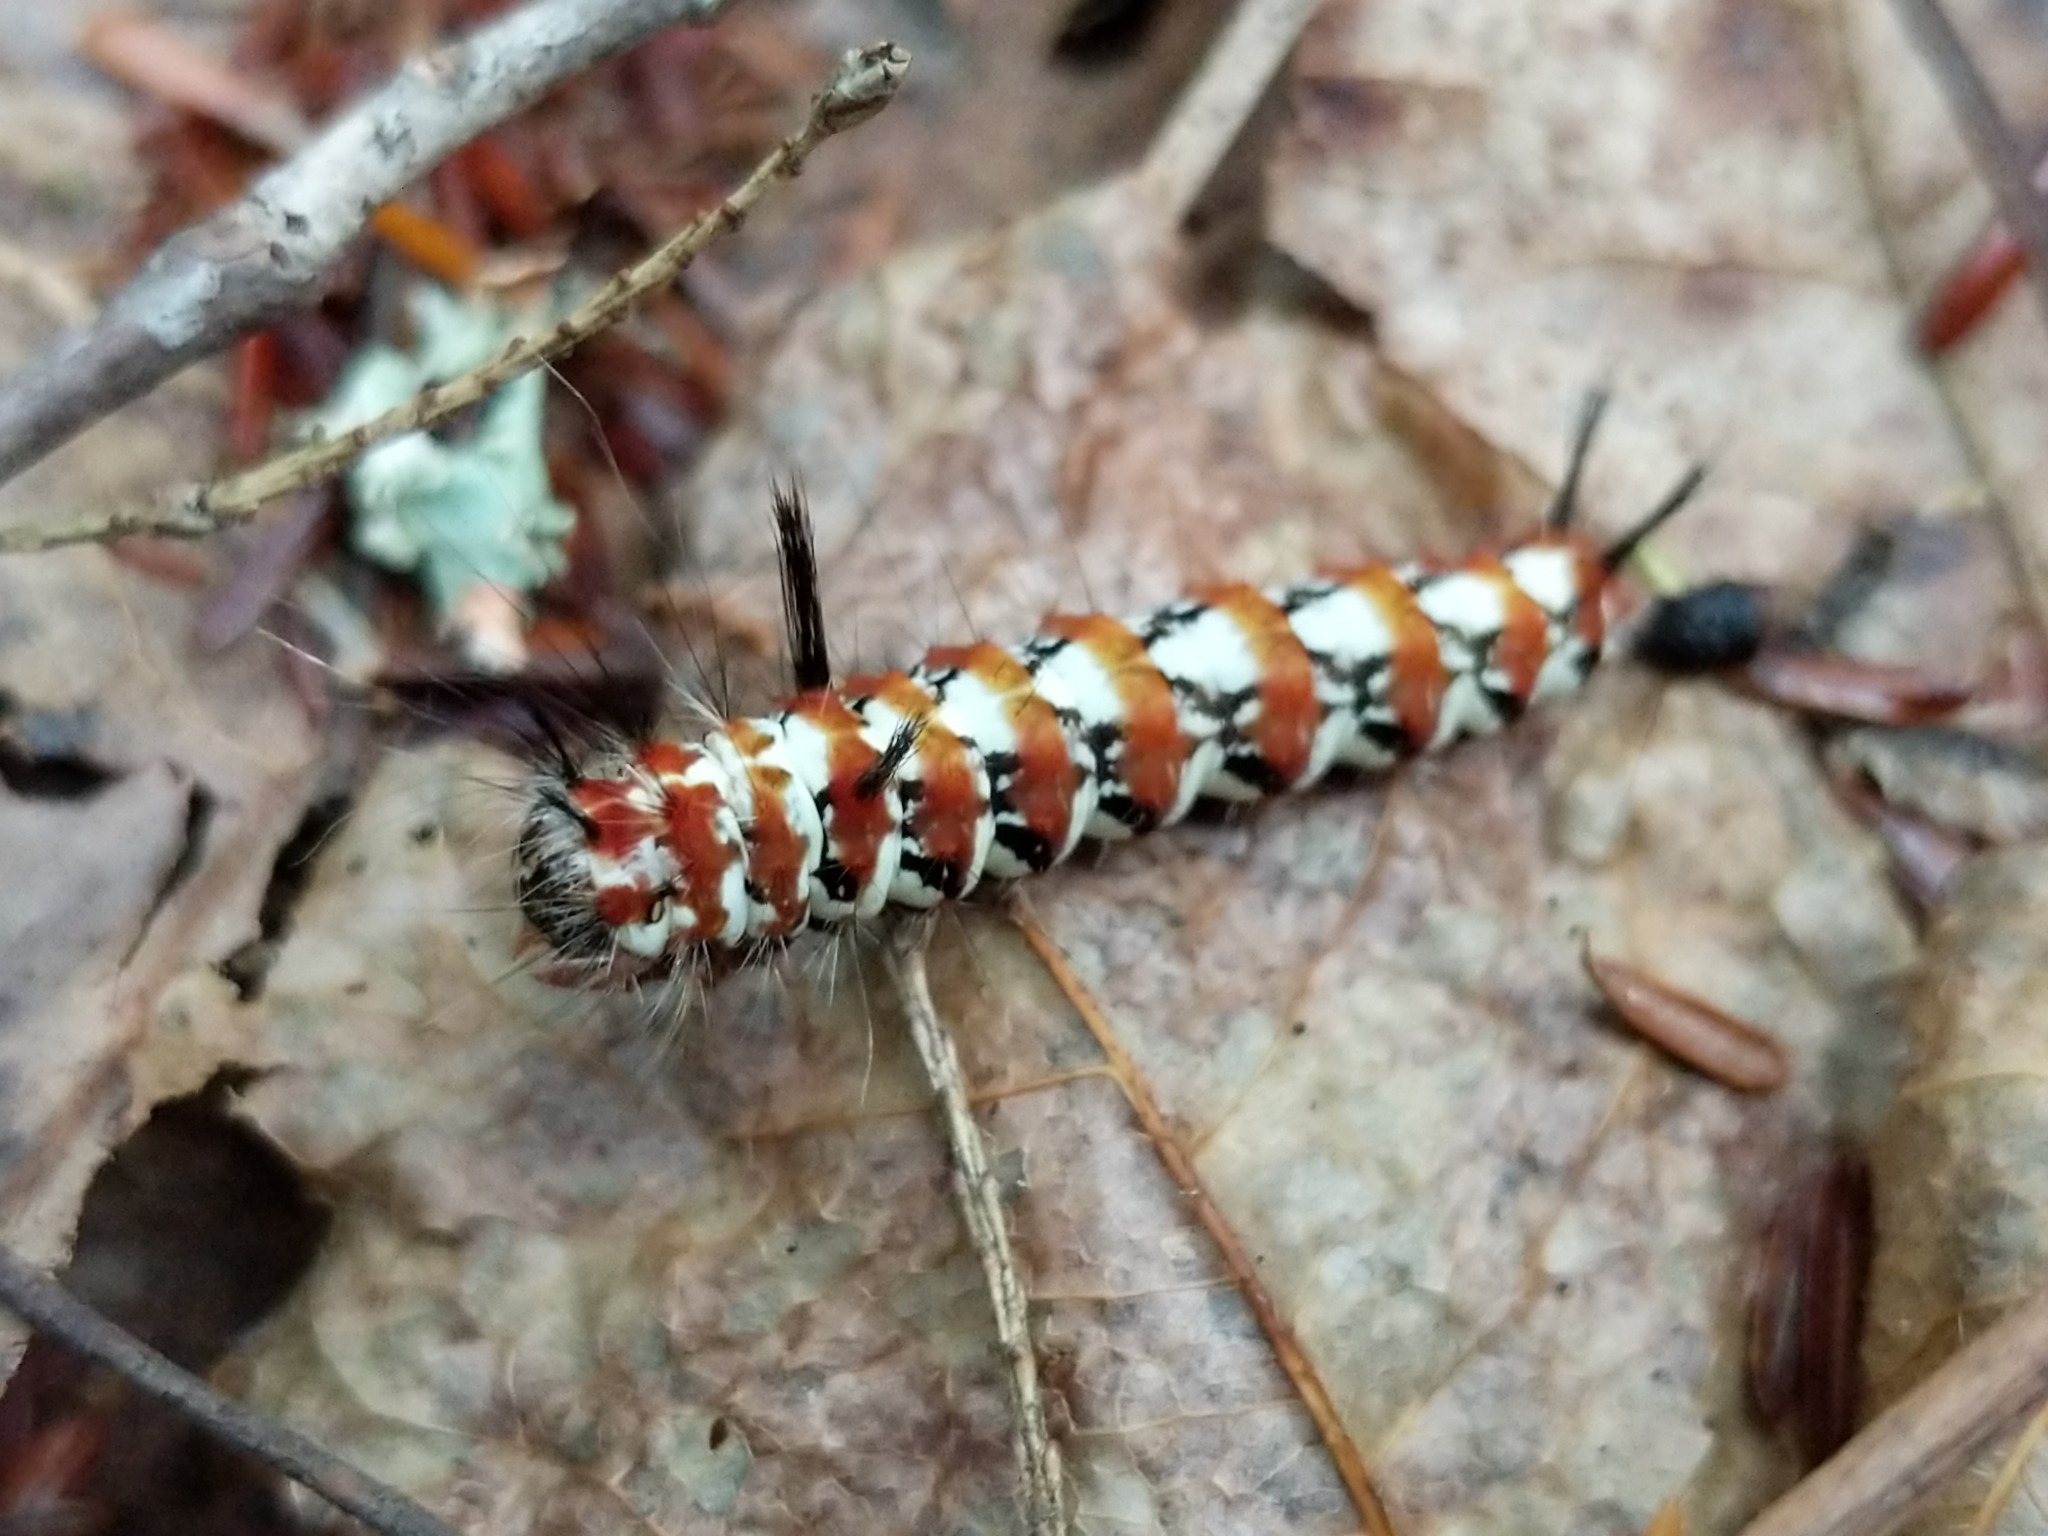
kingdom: Animalia
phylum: Arthropoda
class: Insecta
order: Lepidoptera
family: Noctuidae
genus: Panthea
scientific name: Panthea furcilla
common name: Eastern panthea moth
